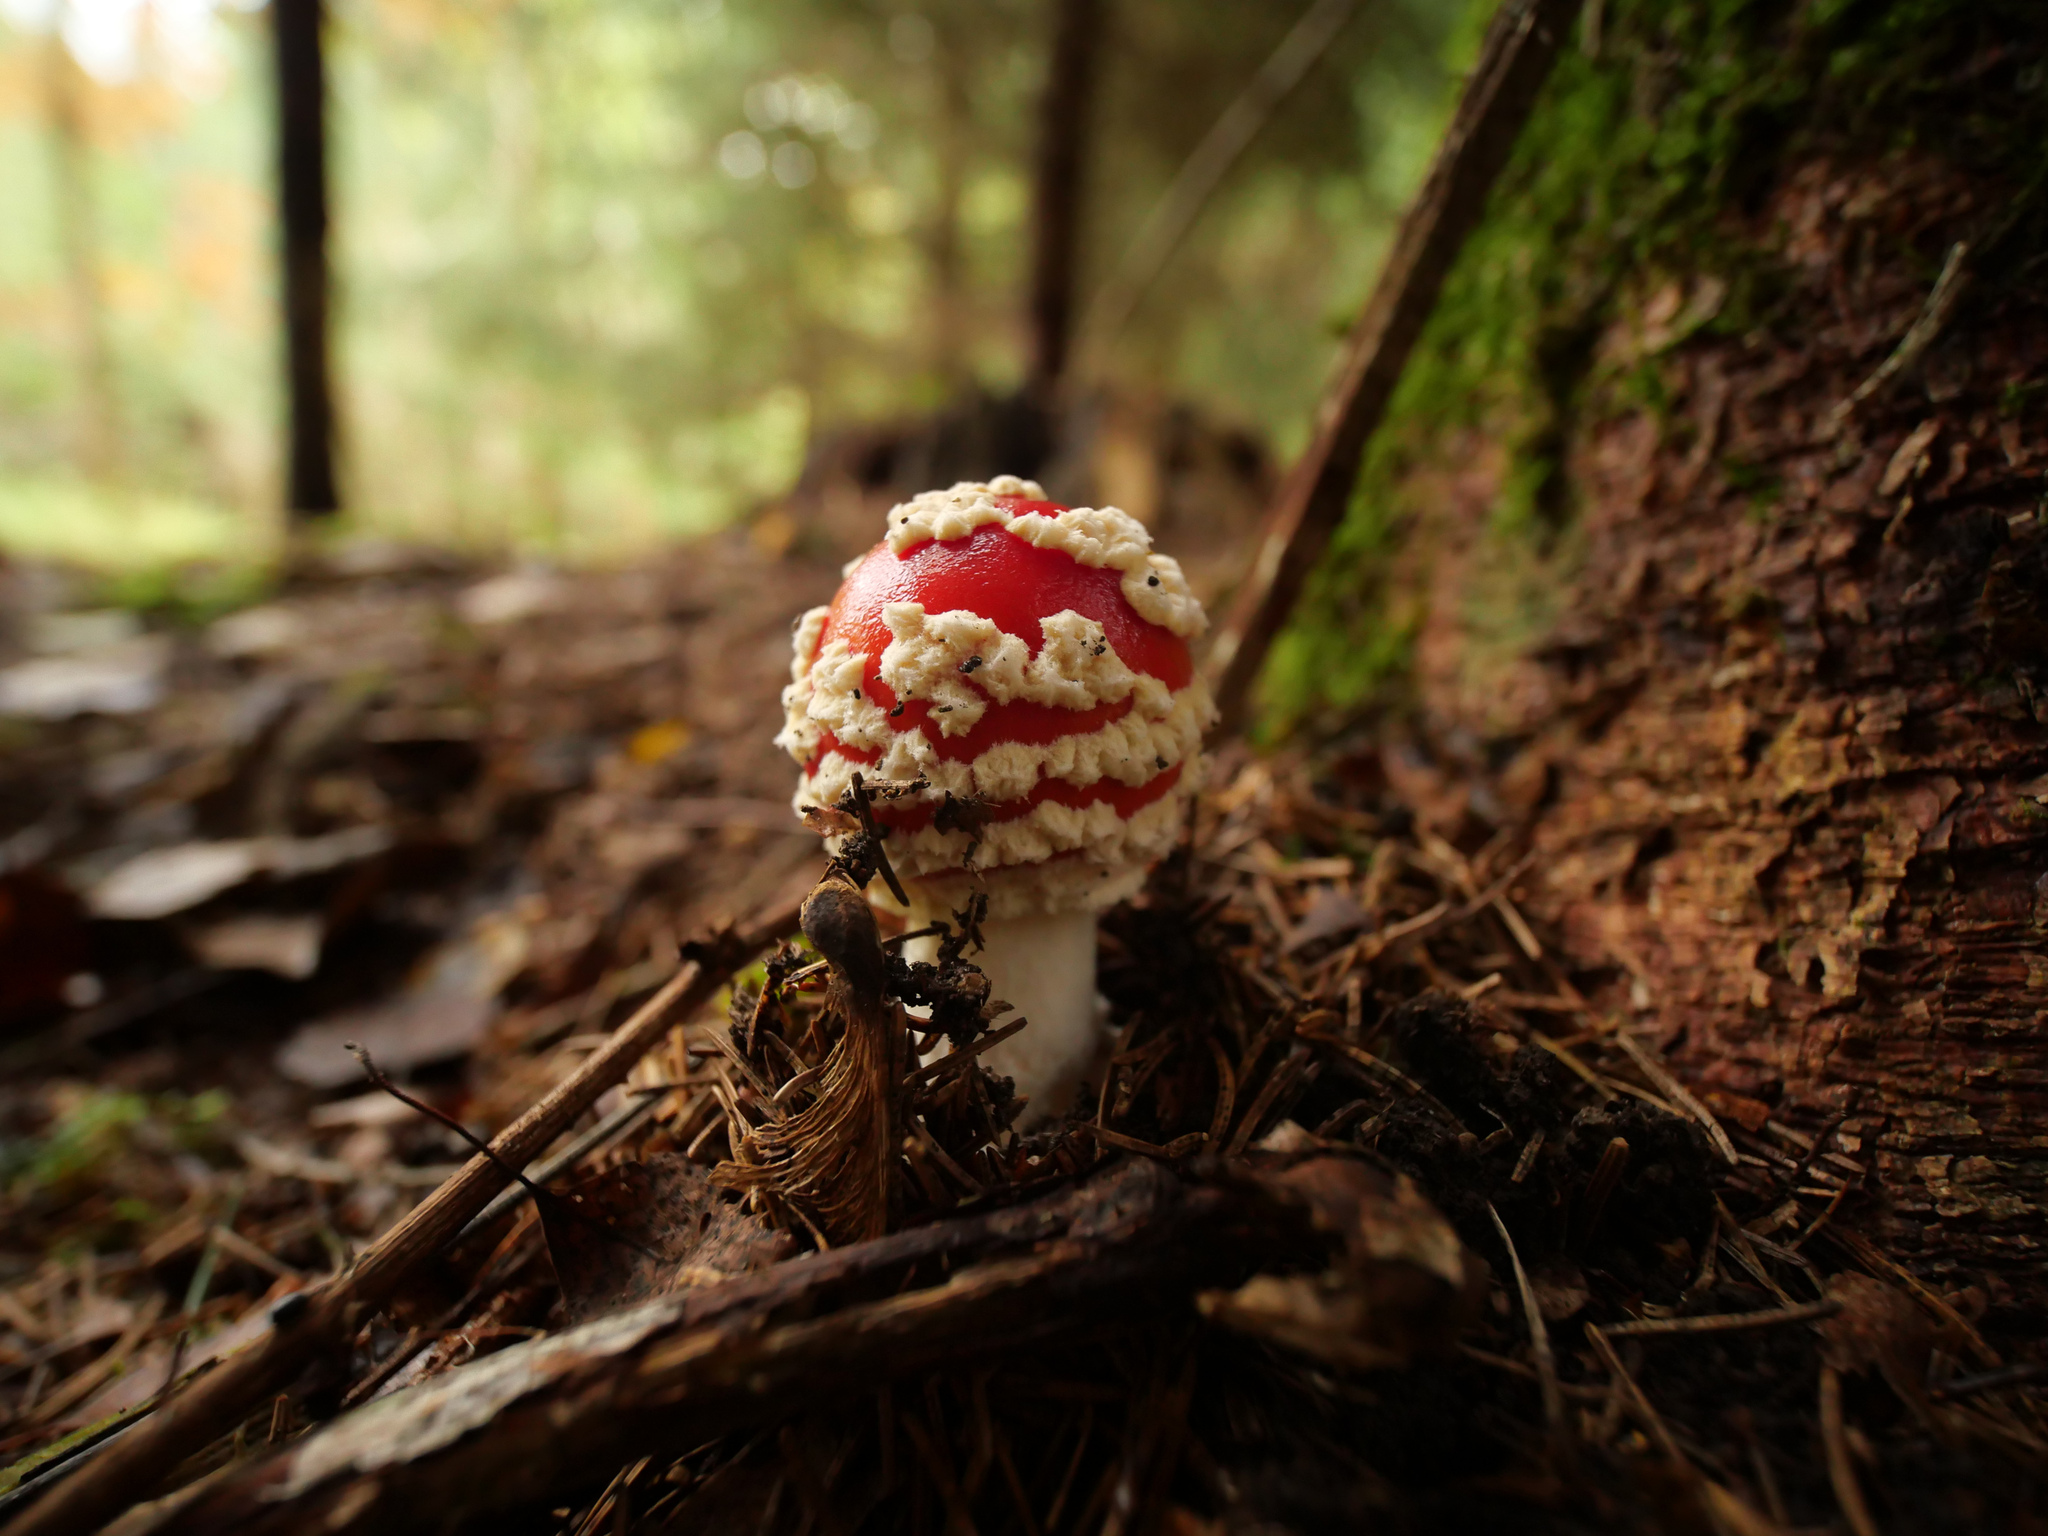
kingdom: Fungi
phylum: Basidiomycota
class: Agaricomycetes
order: Agaricales
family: Amanitaceae
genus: Amanita
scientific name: Amanita muscaria
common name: Fly agaric
